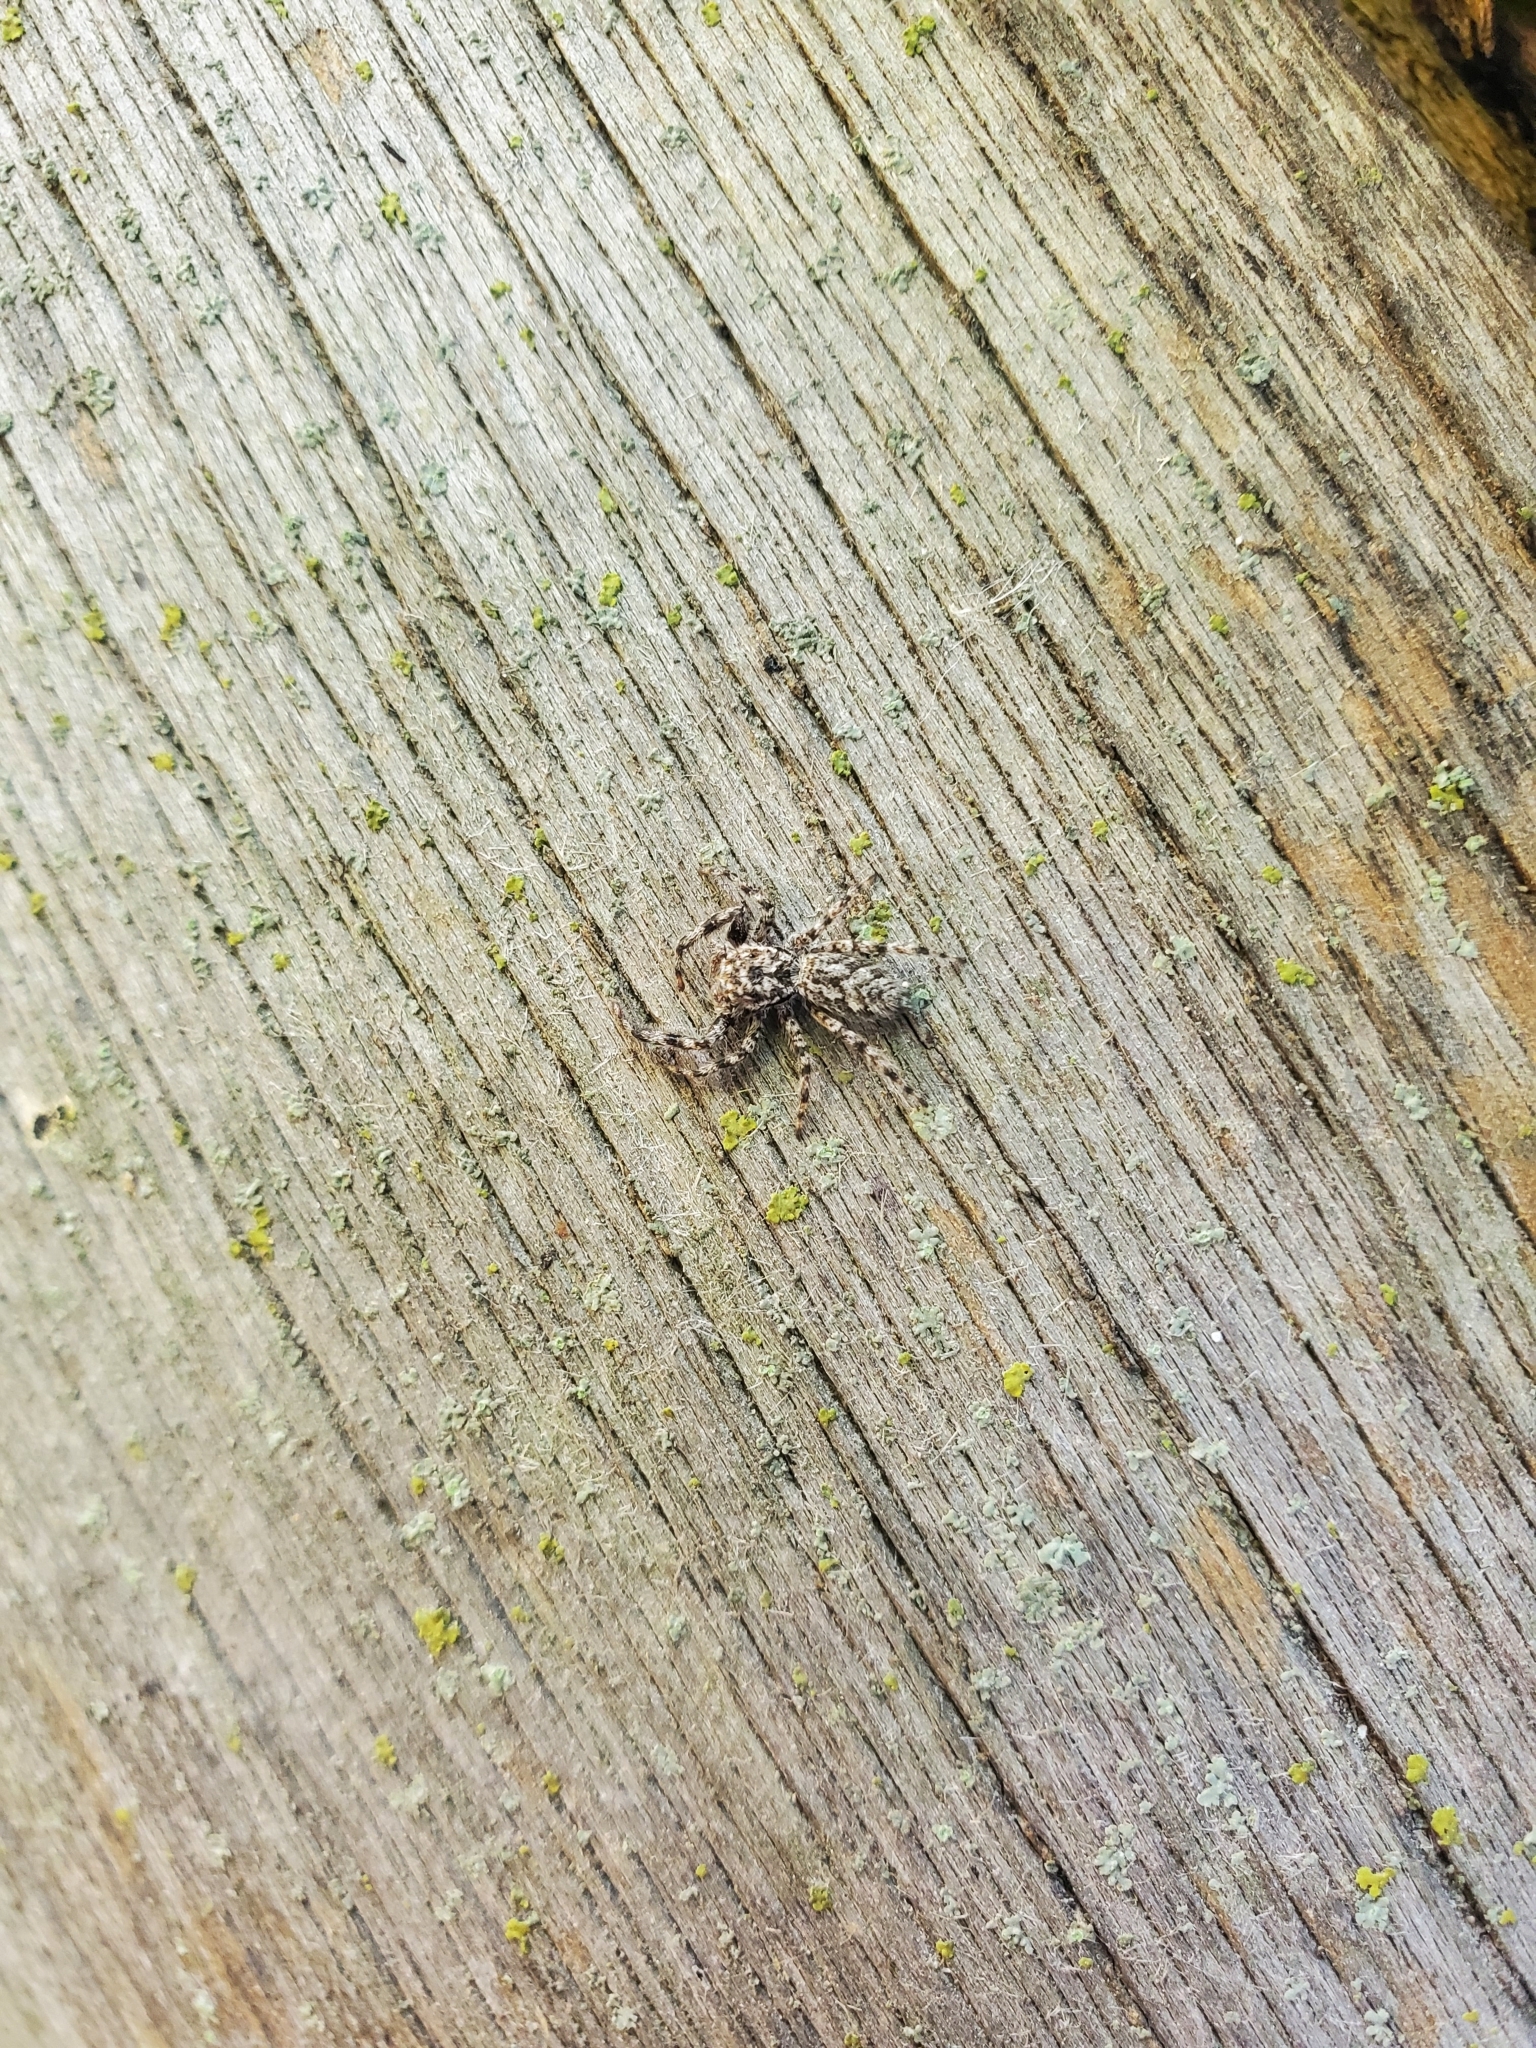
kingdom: Animalia
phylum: Arthropoda
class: Arachnida
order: Araneae
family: Salticidae
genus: Platycryptus
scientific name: Platycryptus undatus
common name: Tan jumping spider
